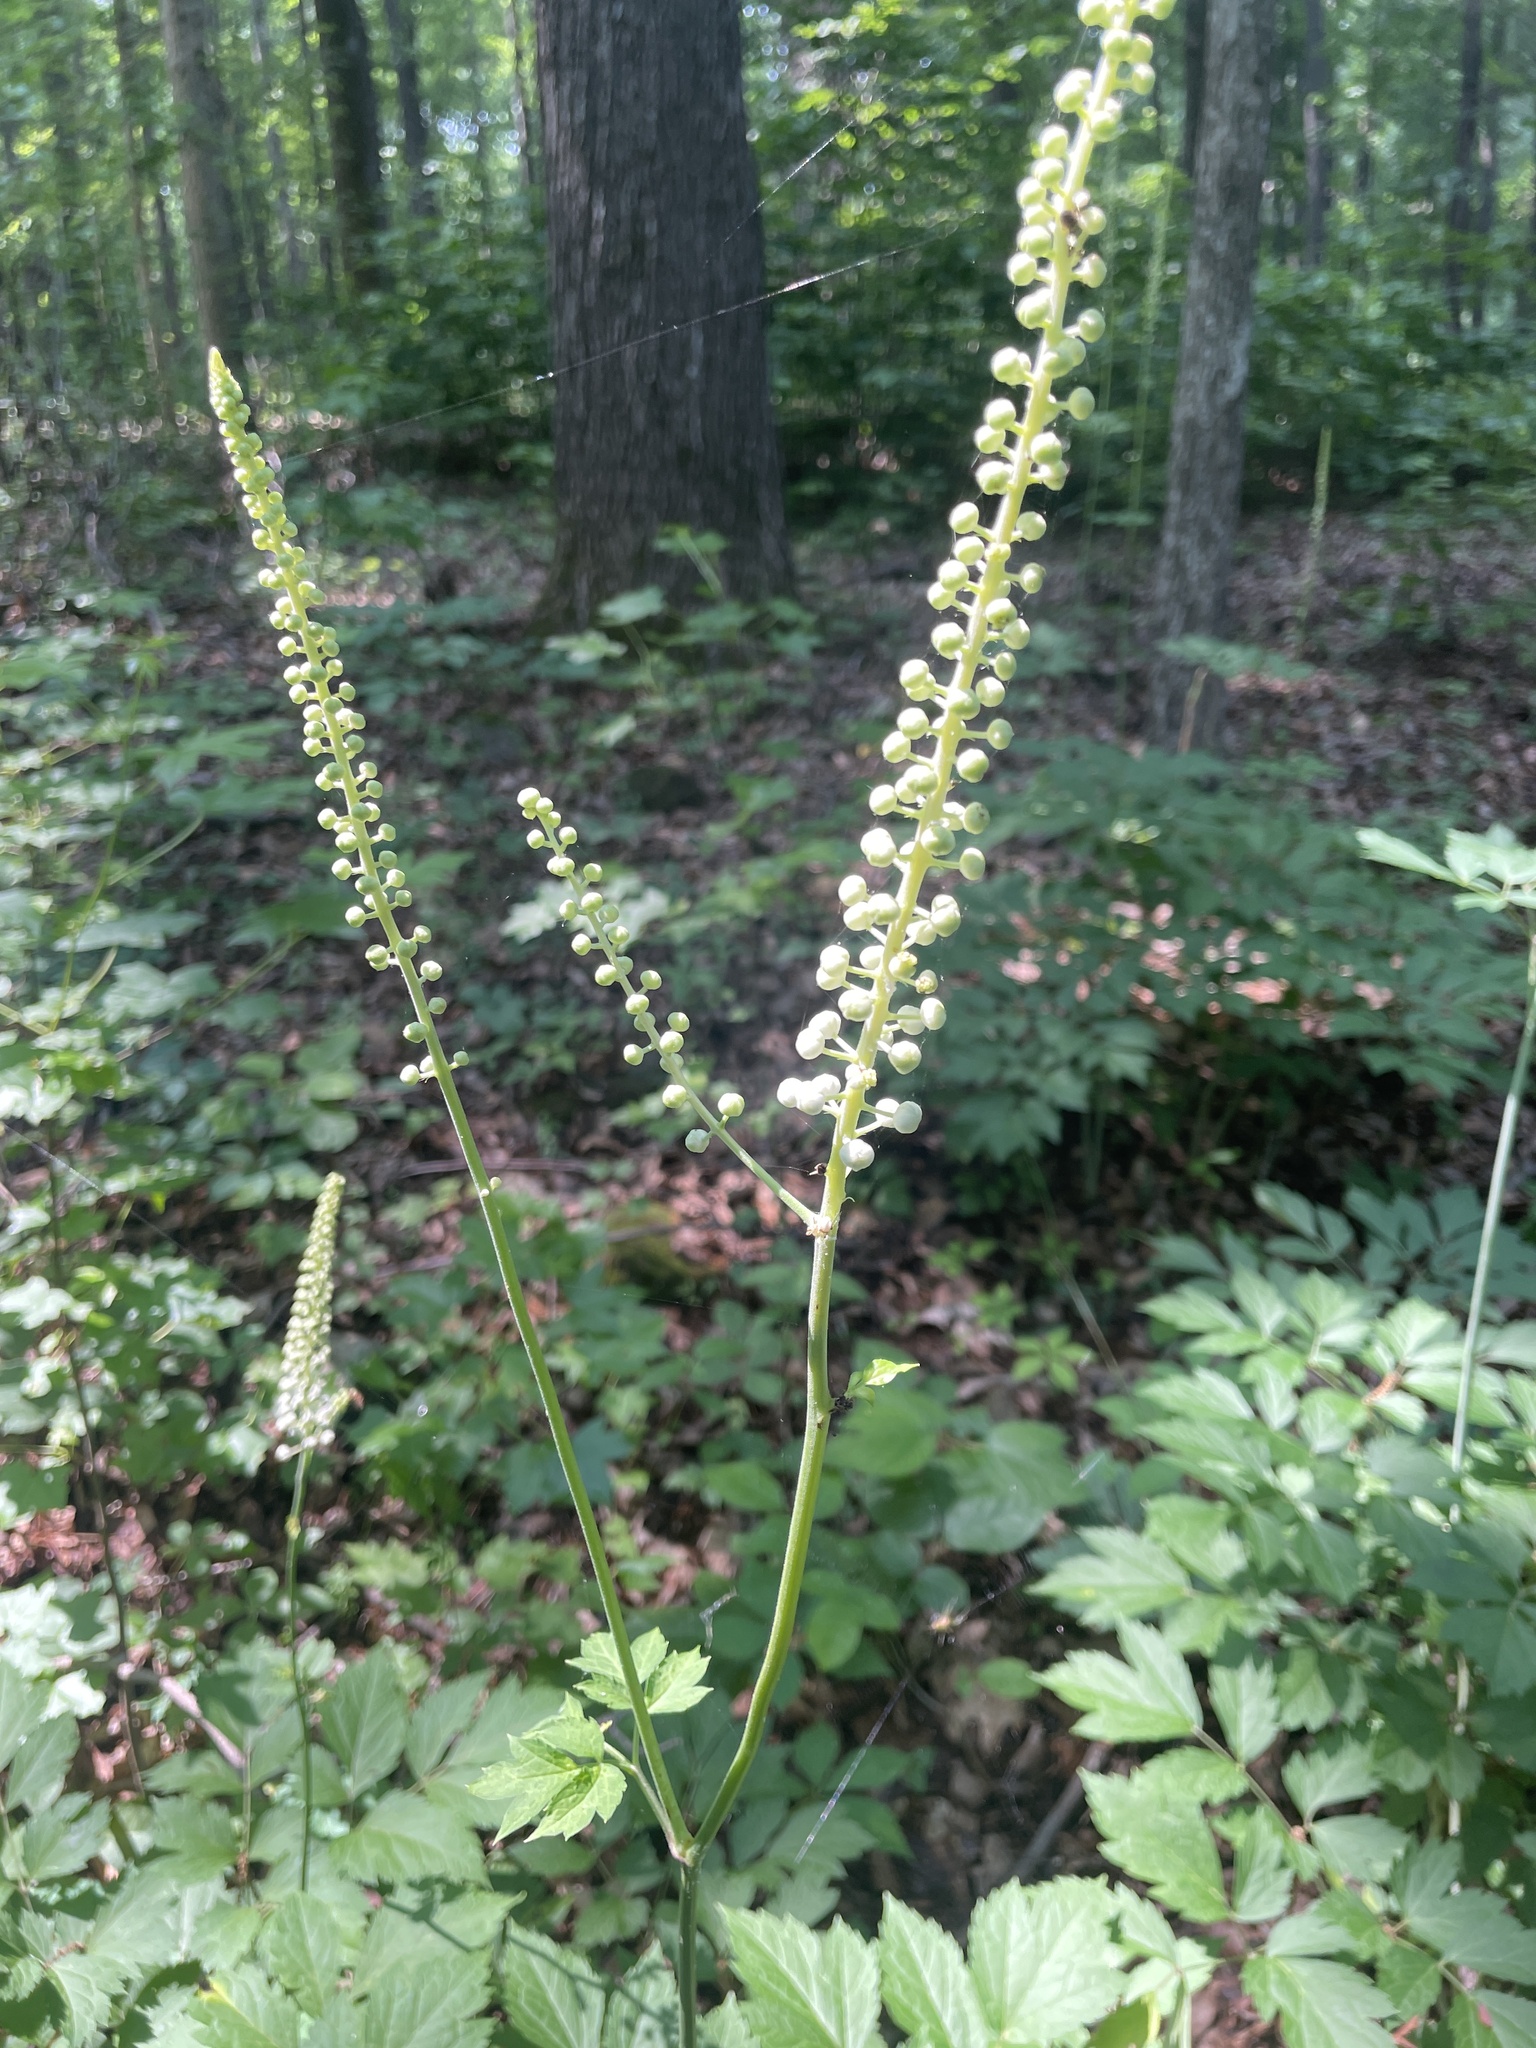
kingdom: Plantae
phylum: Tracheophyta
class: Magnoliopsida
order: Ranunculales
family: Ranunculaceae
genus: Actaea
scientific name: Actaea racemosa
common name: Black cohosh
